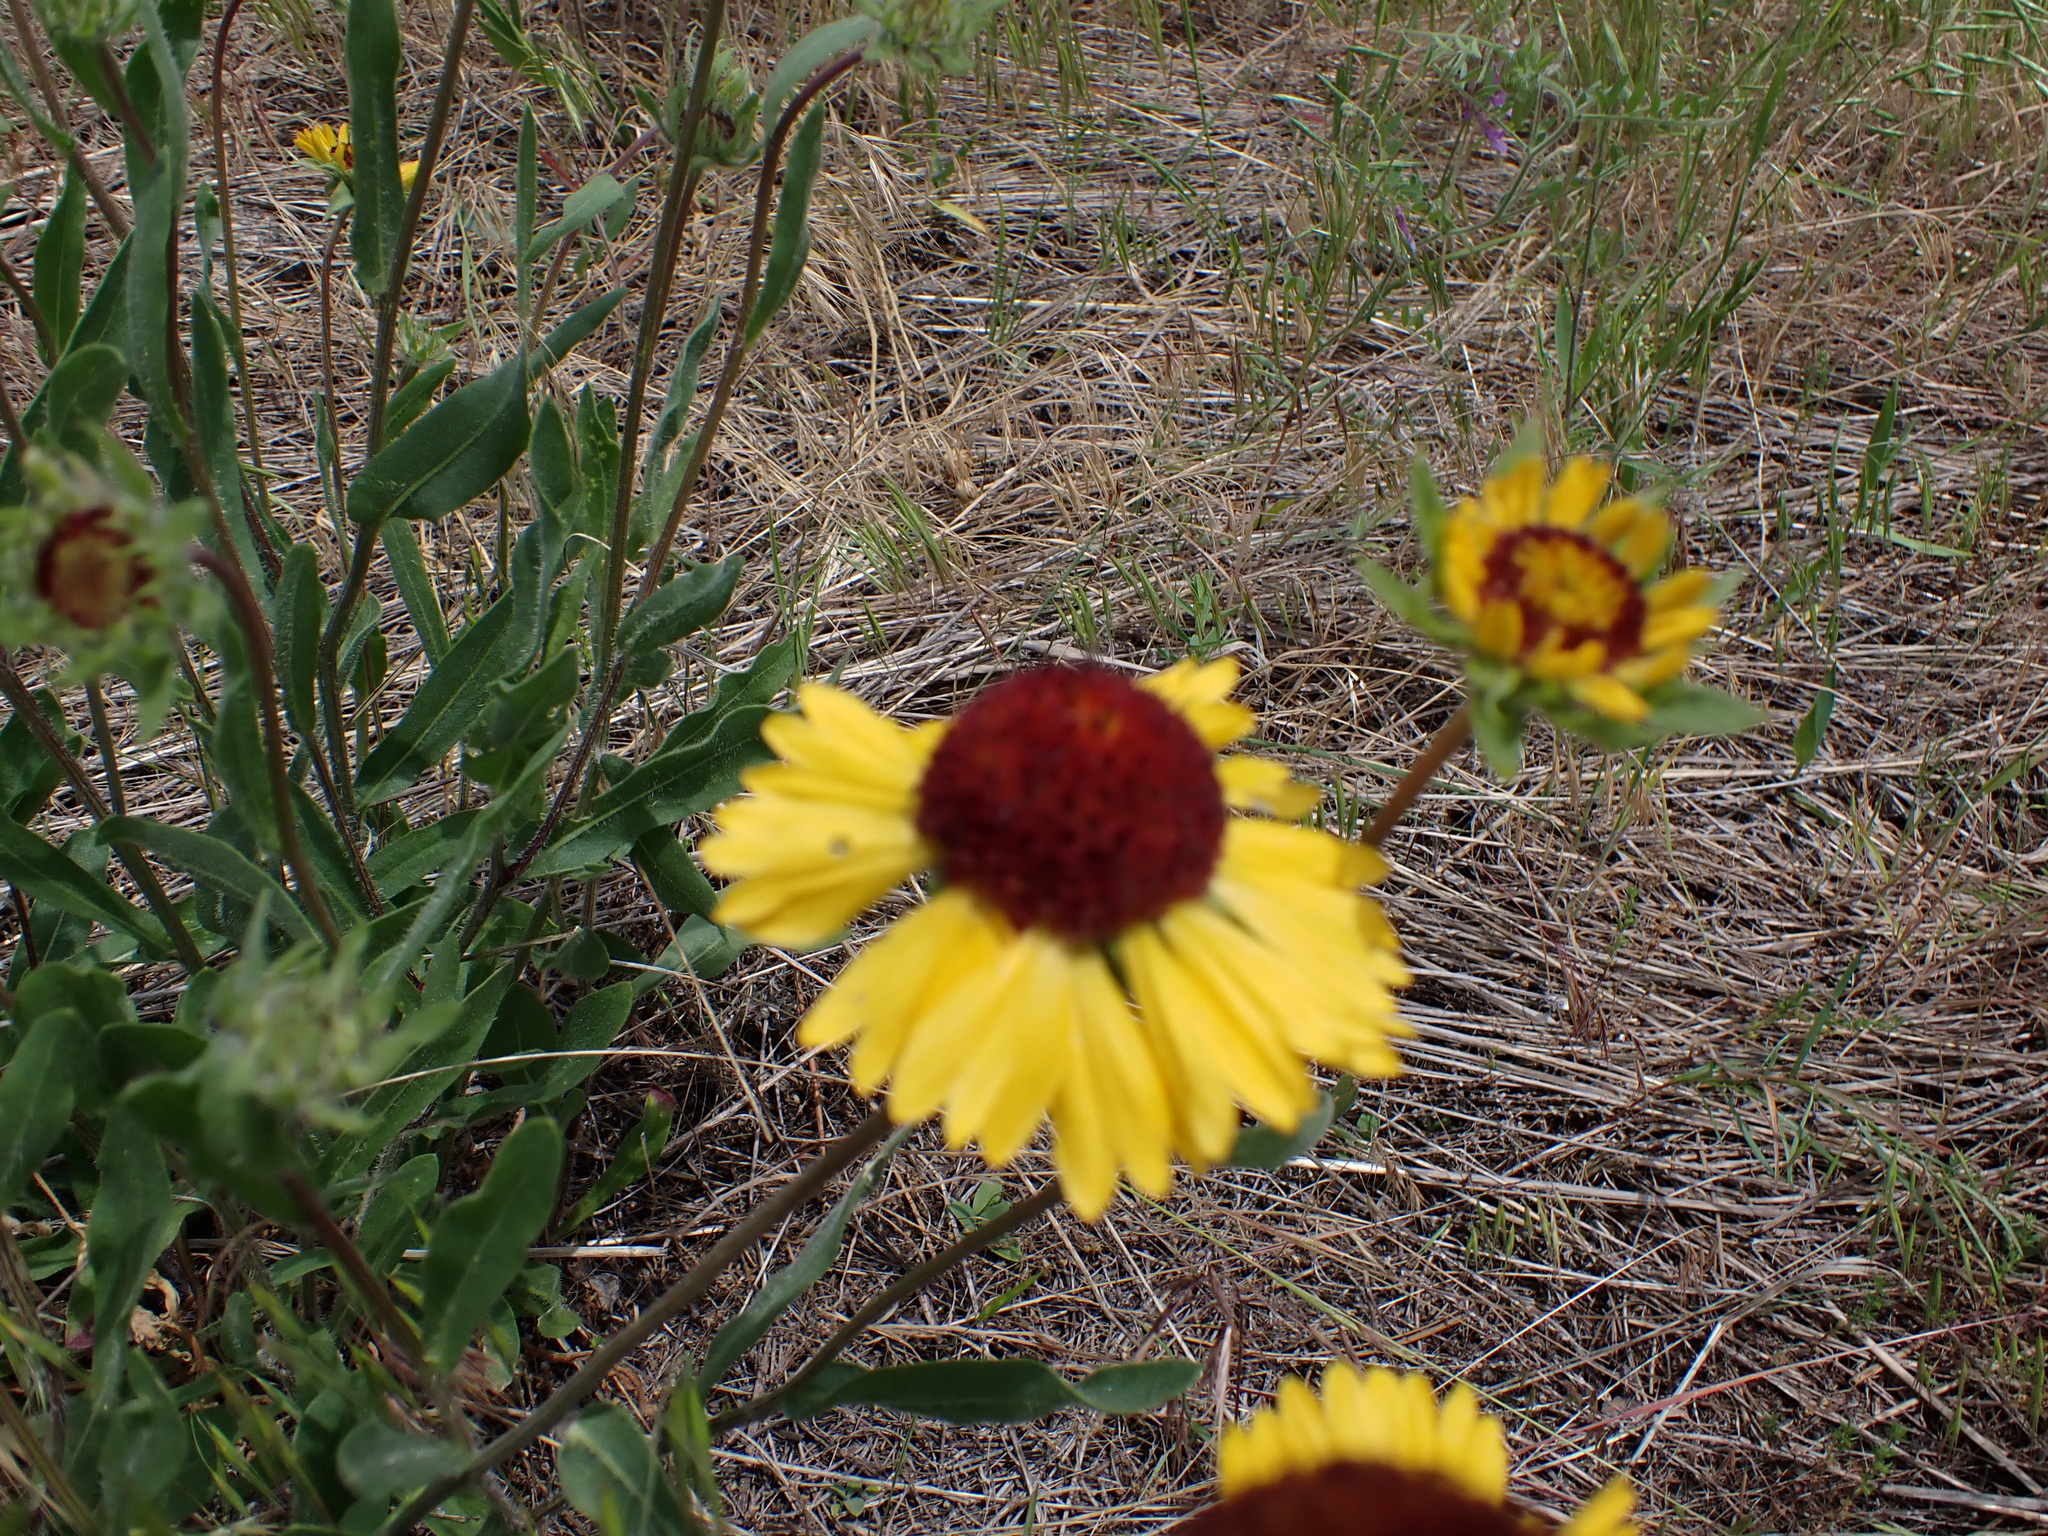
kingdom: Plantae
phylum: Tracheophyta
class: Magnoliopsida
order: Asterales
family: Asteraceae
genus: Gaillardia
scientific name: Gaillardia aristata
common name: Blanket-flower
